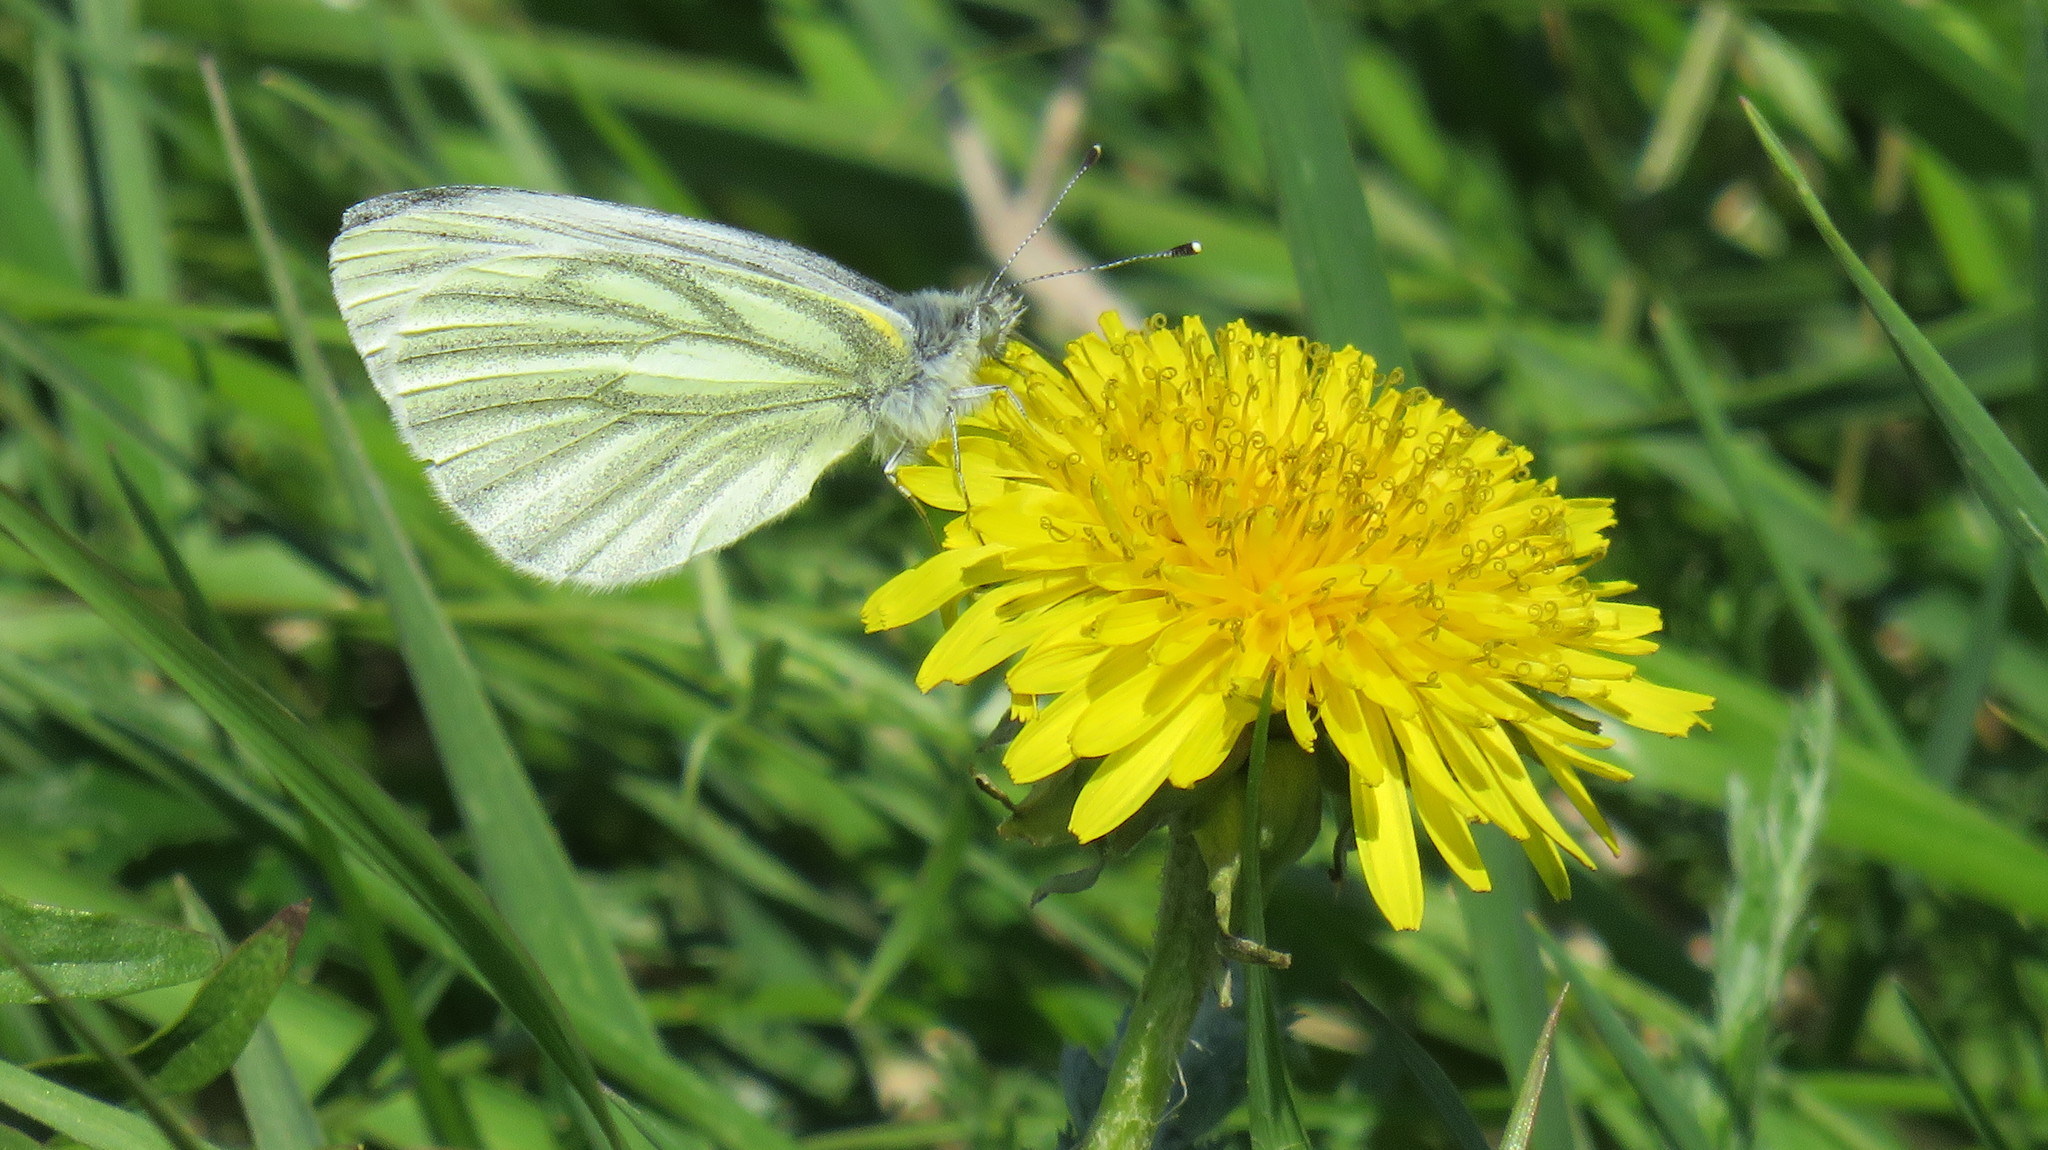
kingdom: Animalia
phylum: Arthropoda
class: Insecta
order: Lepidoptera
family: Pieridae
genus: Pieris
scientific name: Pieris napi
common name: Green-veined white
